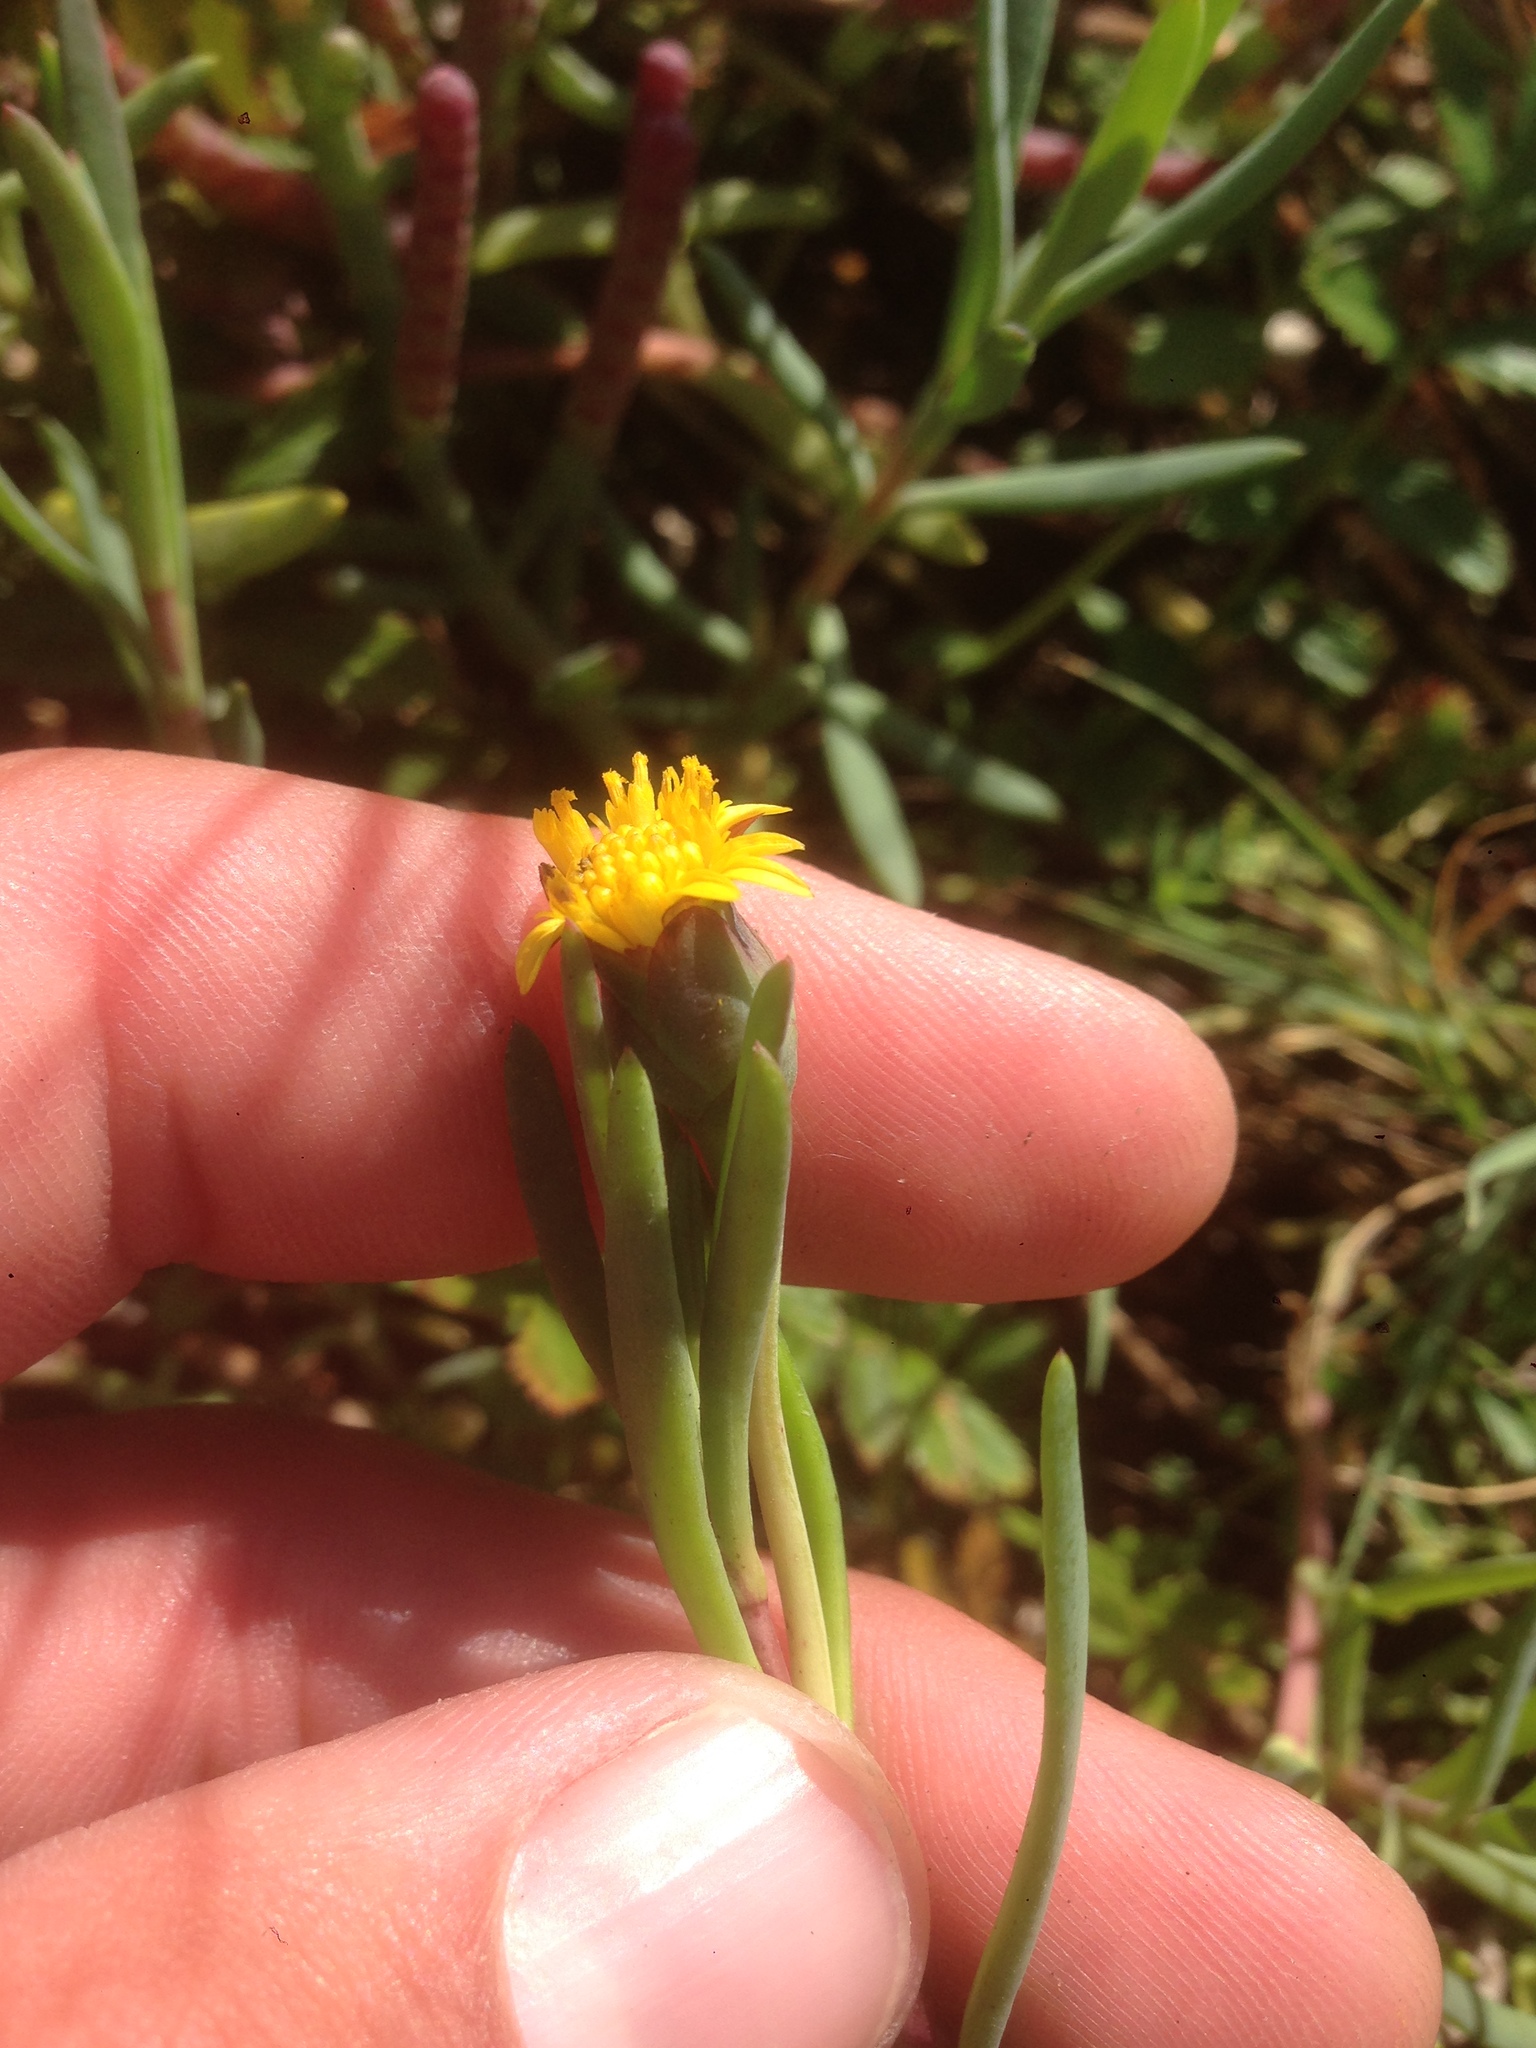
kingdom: Plantae
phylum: Tracheophyta
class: Magnoliopsida
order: Asterales
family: Asteraceae
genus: Jaumea
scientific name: Jaumea carnosa
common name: Fleshy jaumea
